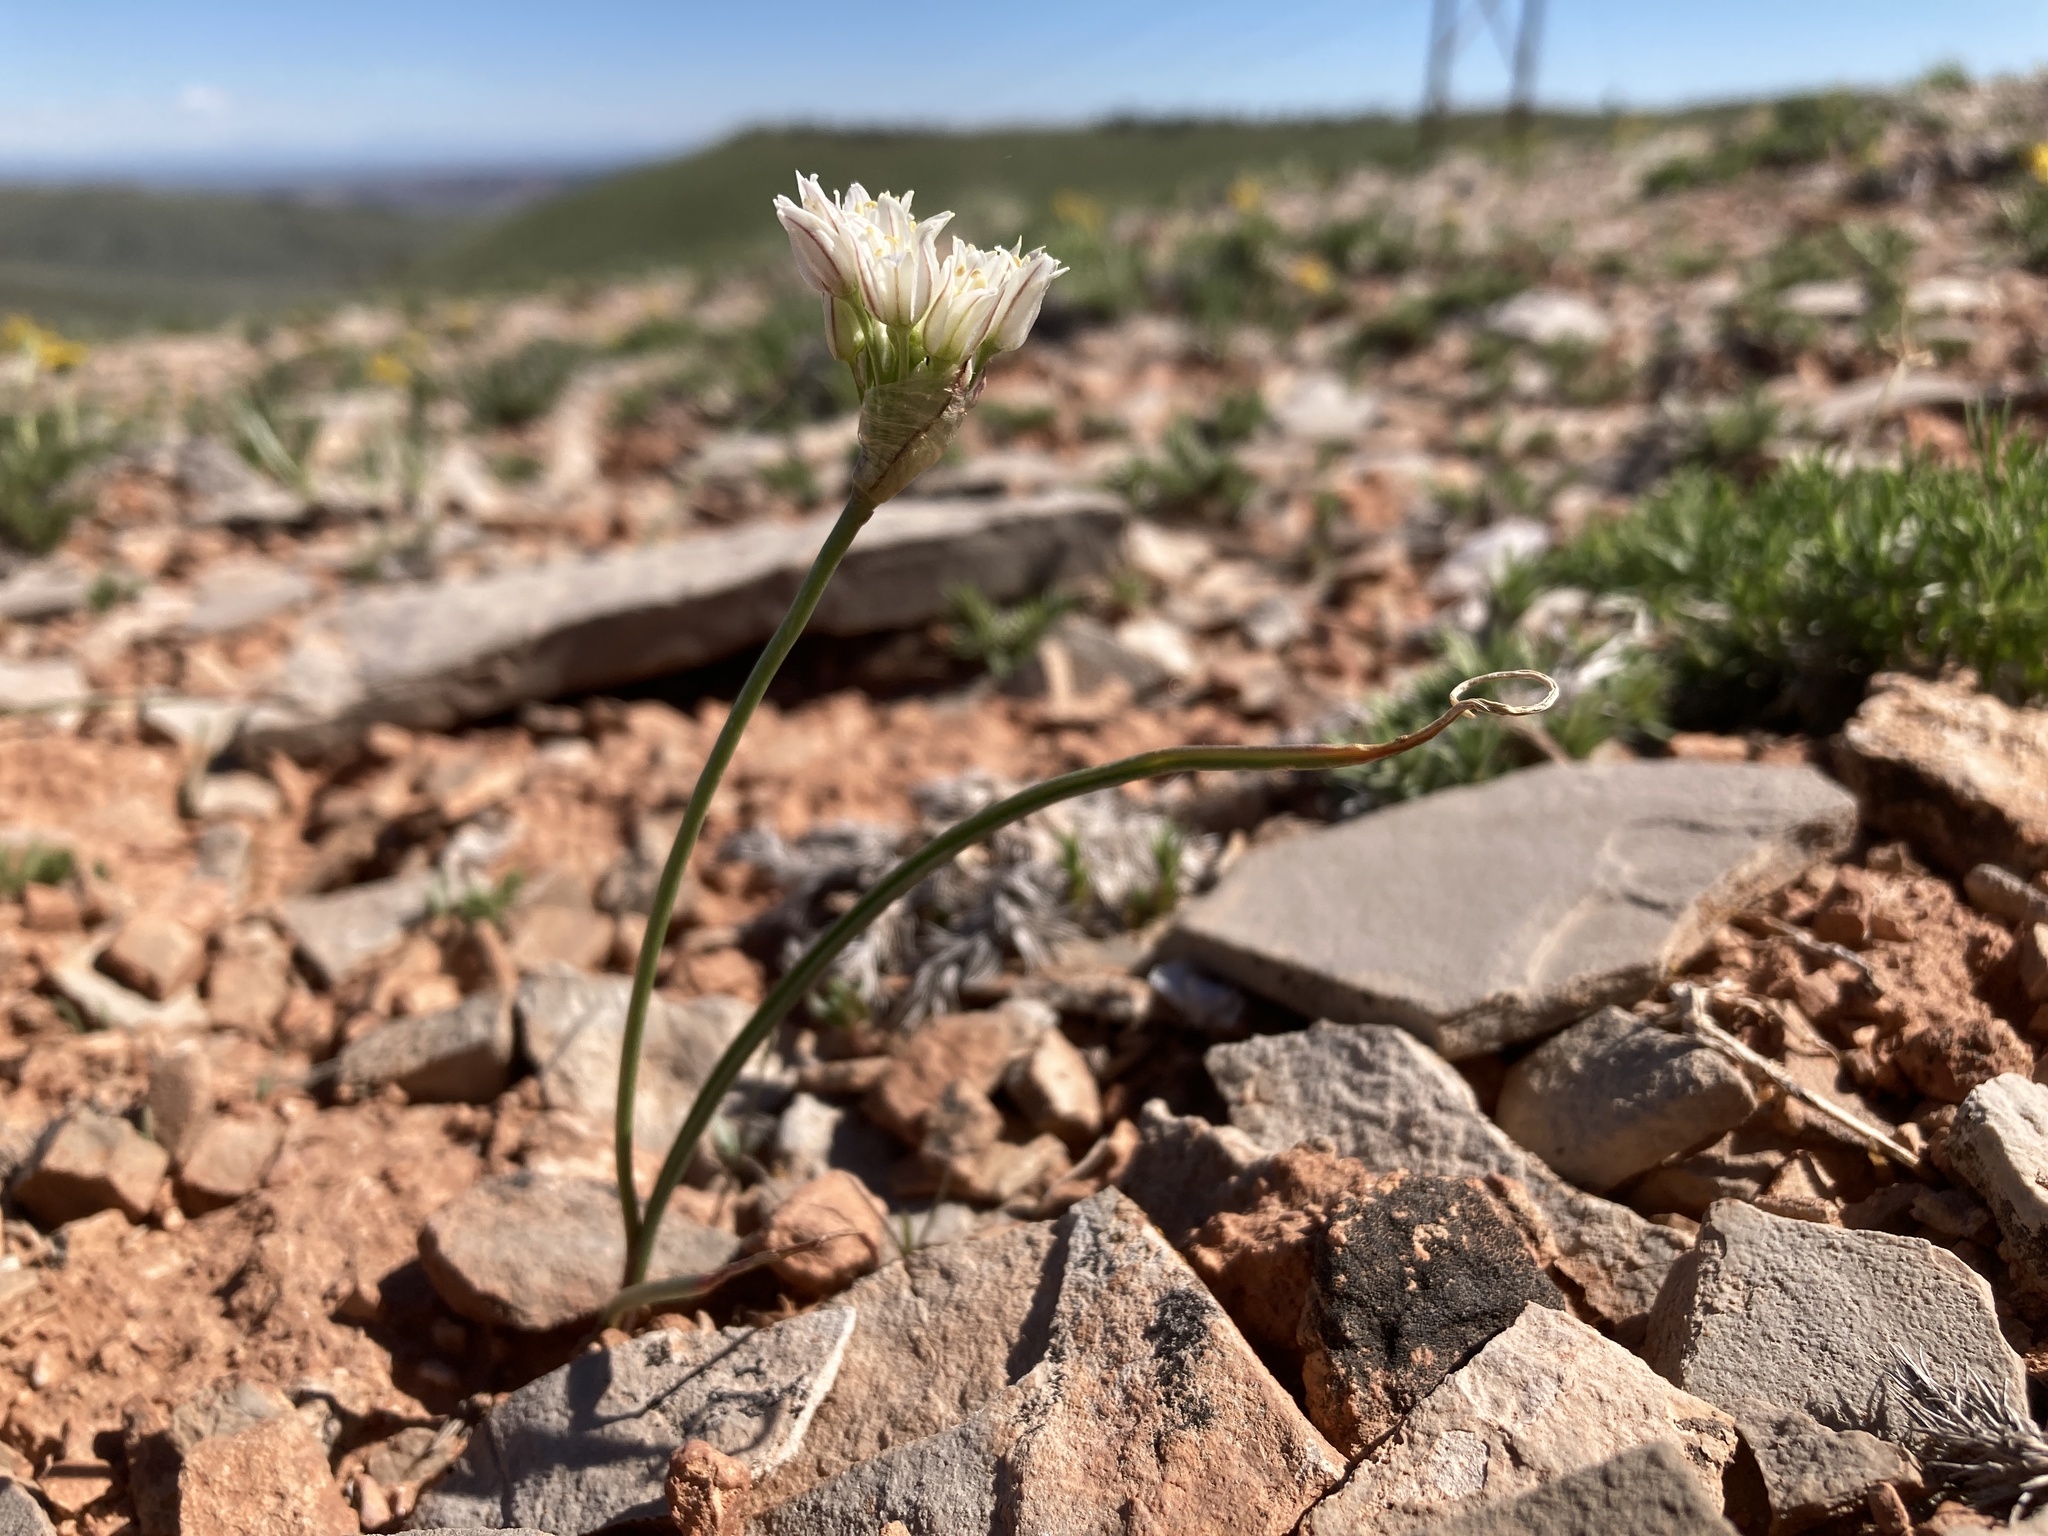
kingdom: Plantae
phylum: Tracheophyta
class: Liliopsida
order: Asparagales
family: Amaryllidaceae
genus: Allium
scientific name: Allium textile
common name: Prairie onion
